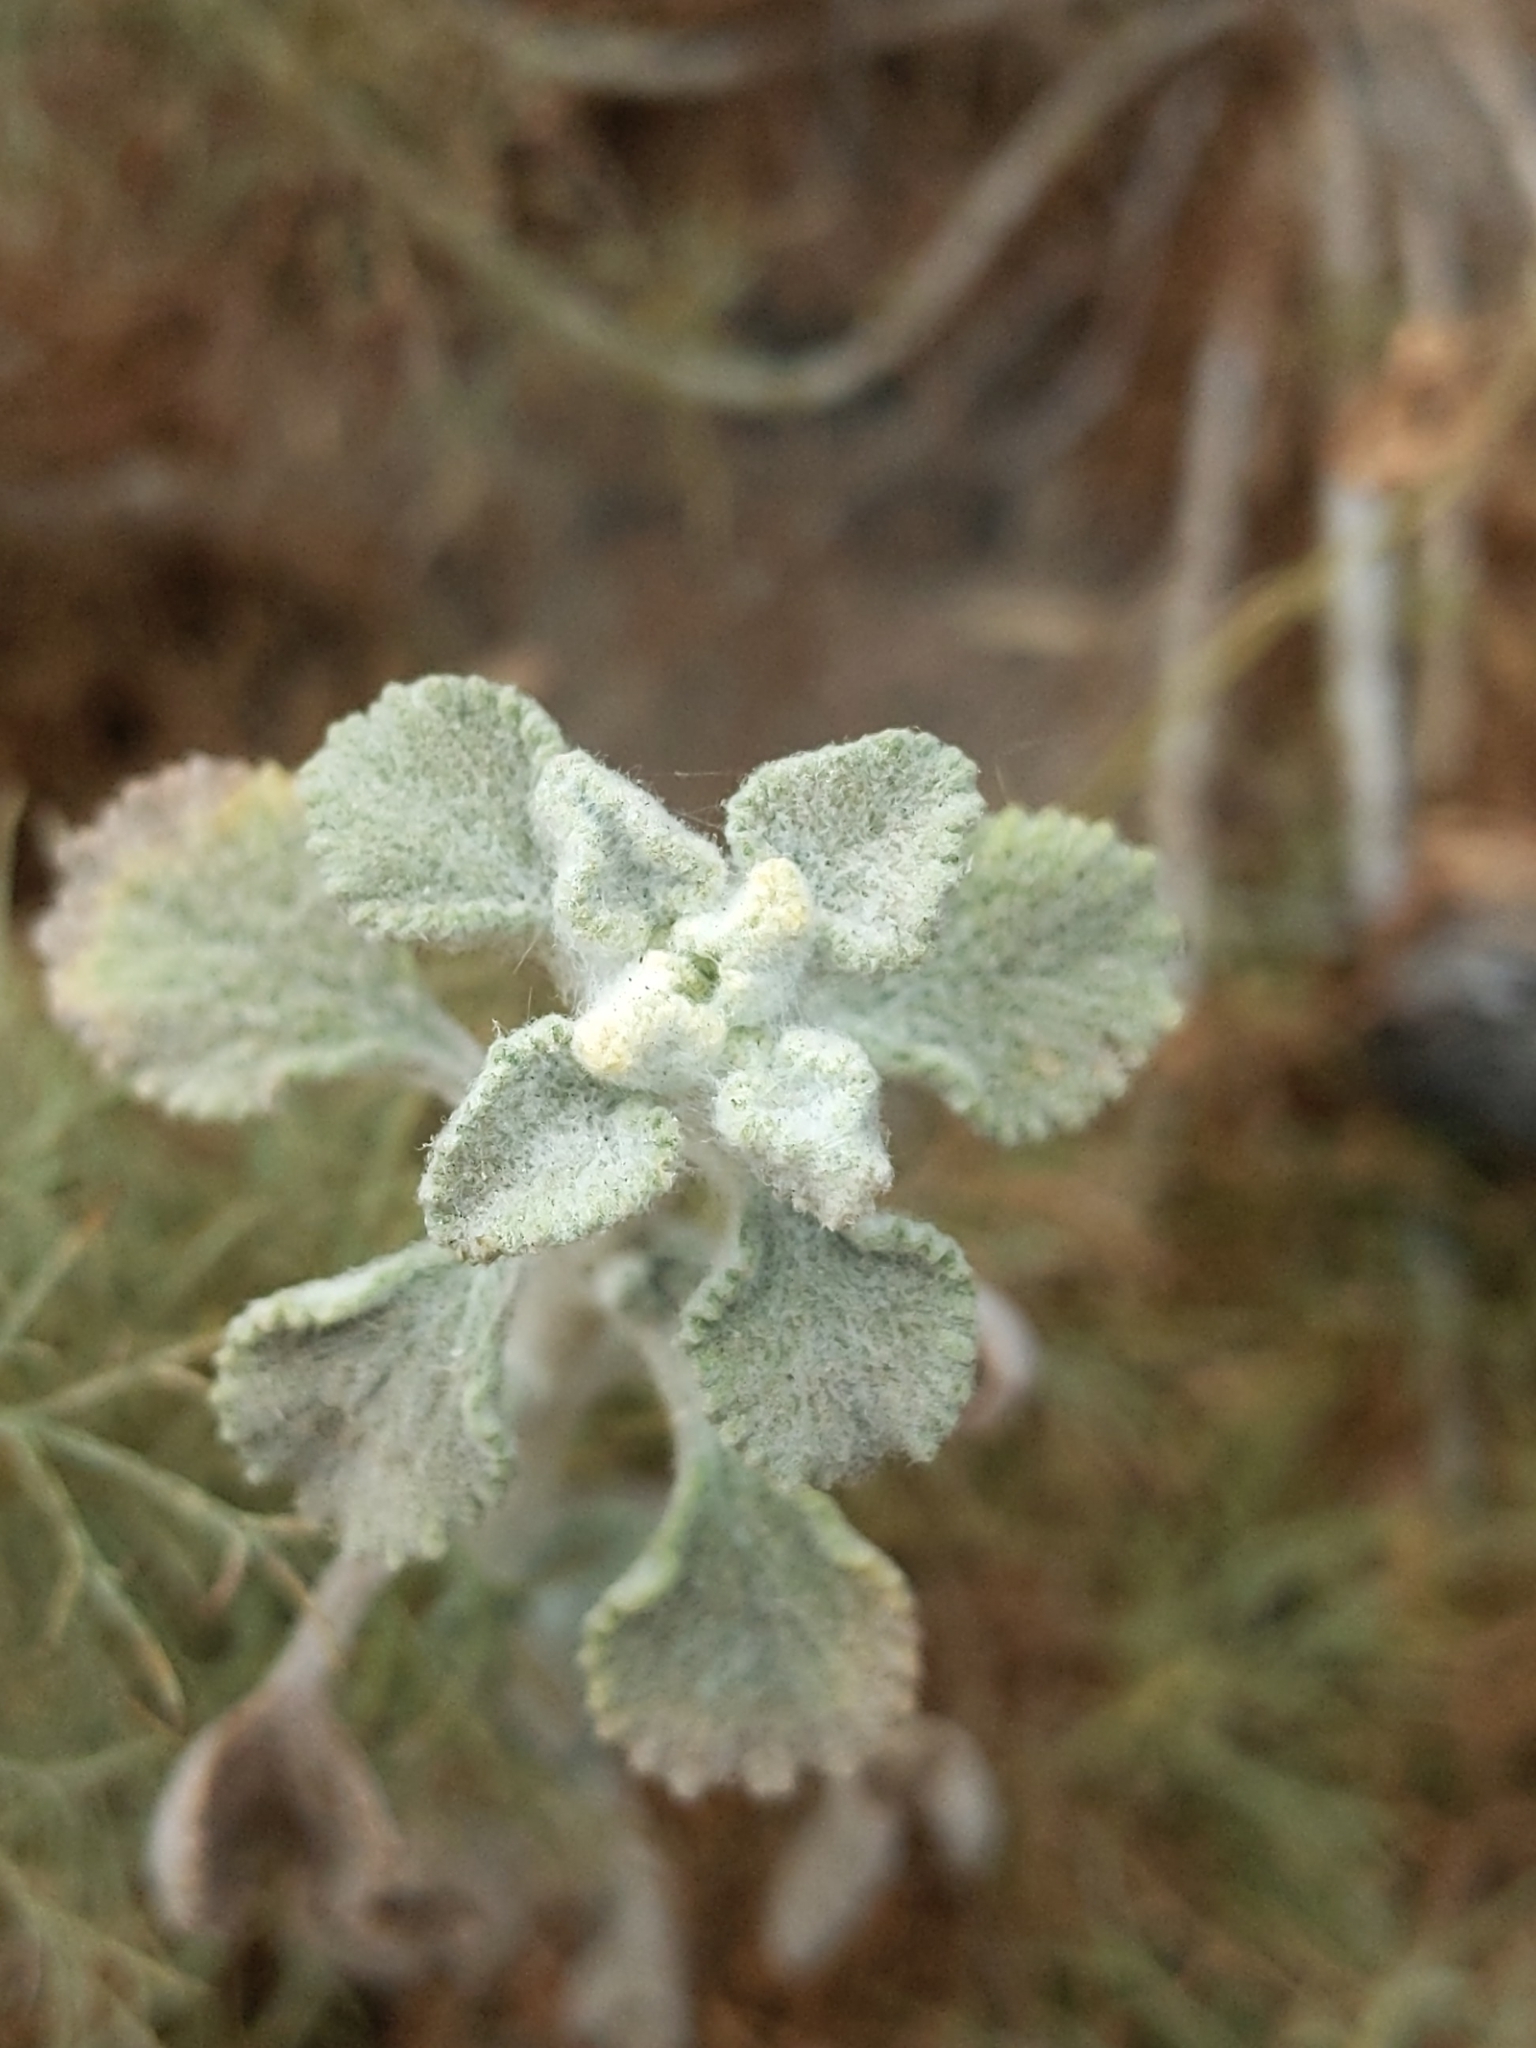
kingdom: Plantae
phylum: Tracheophyta
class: Magnoliopsida
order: Lamiales
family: Lamiaceae
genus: Marrubium
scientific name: Marrubium vulgare
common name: Horehound
